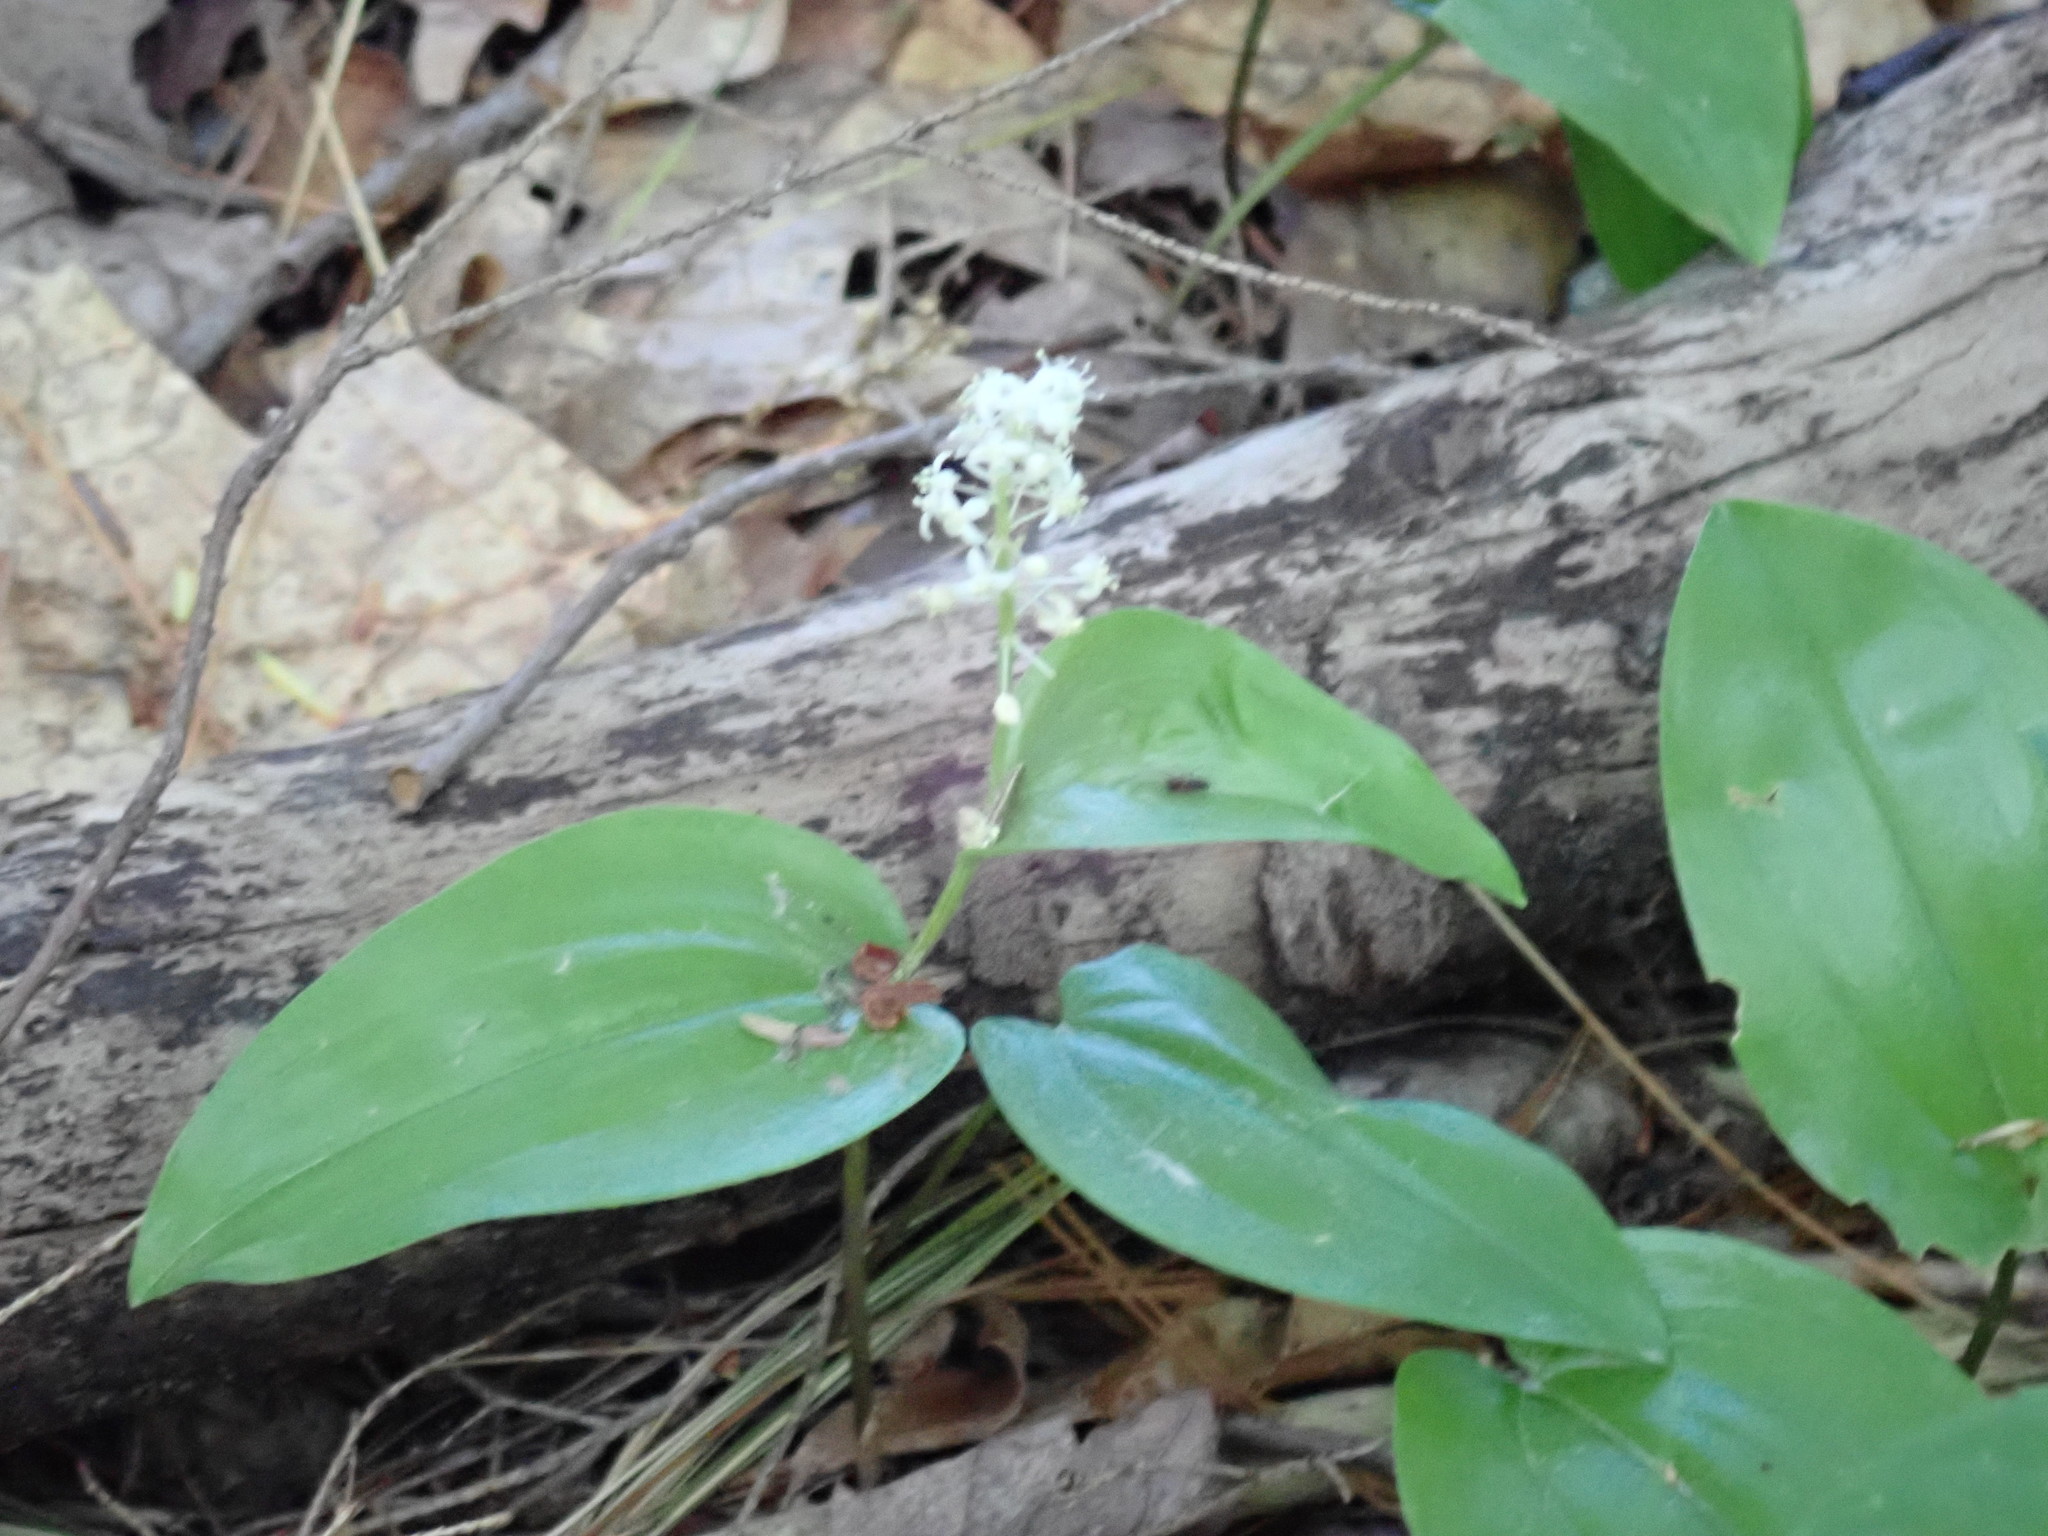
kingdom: Plantae
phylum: Tracheophyta
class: Liliopsida
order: Asparagales
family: Asparagaceae
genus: Maianthemum
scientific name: Maianthemum canadense
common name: False lily-of-the-valley
